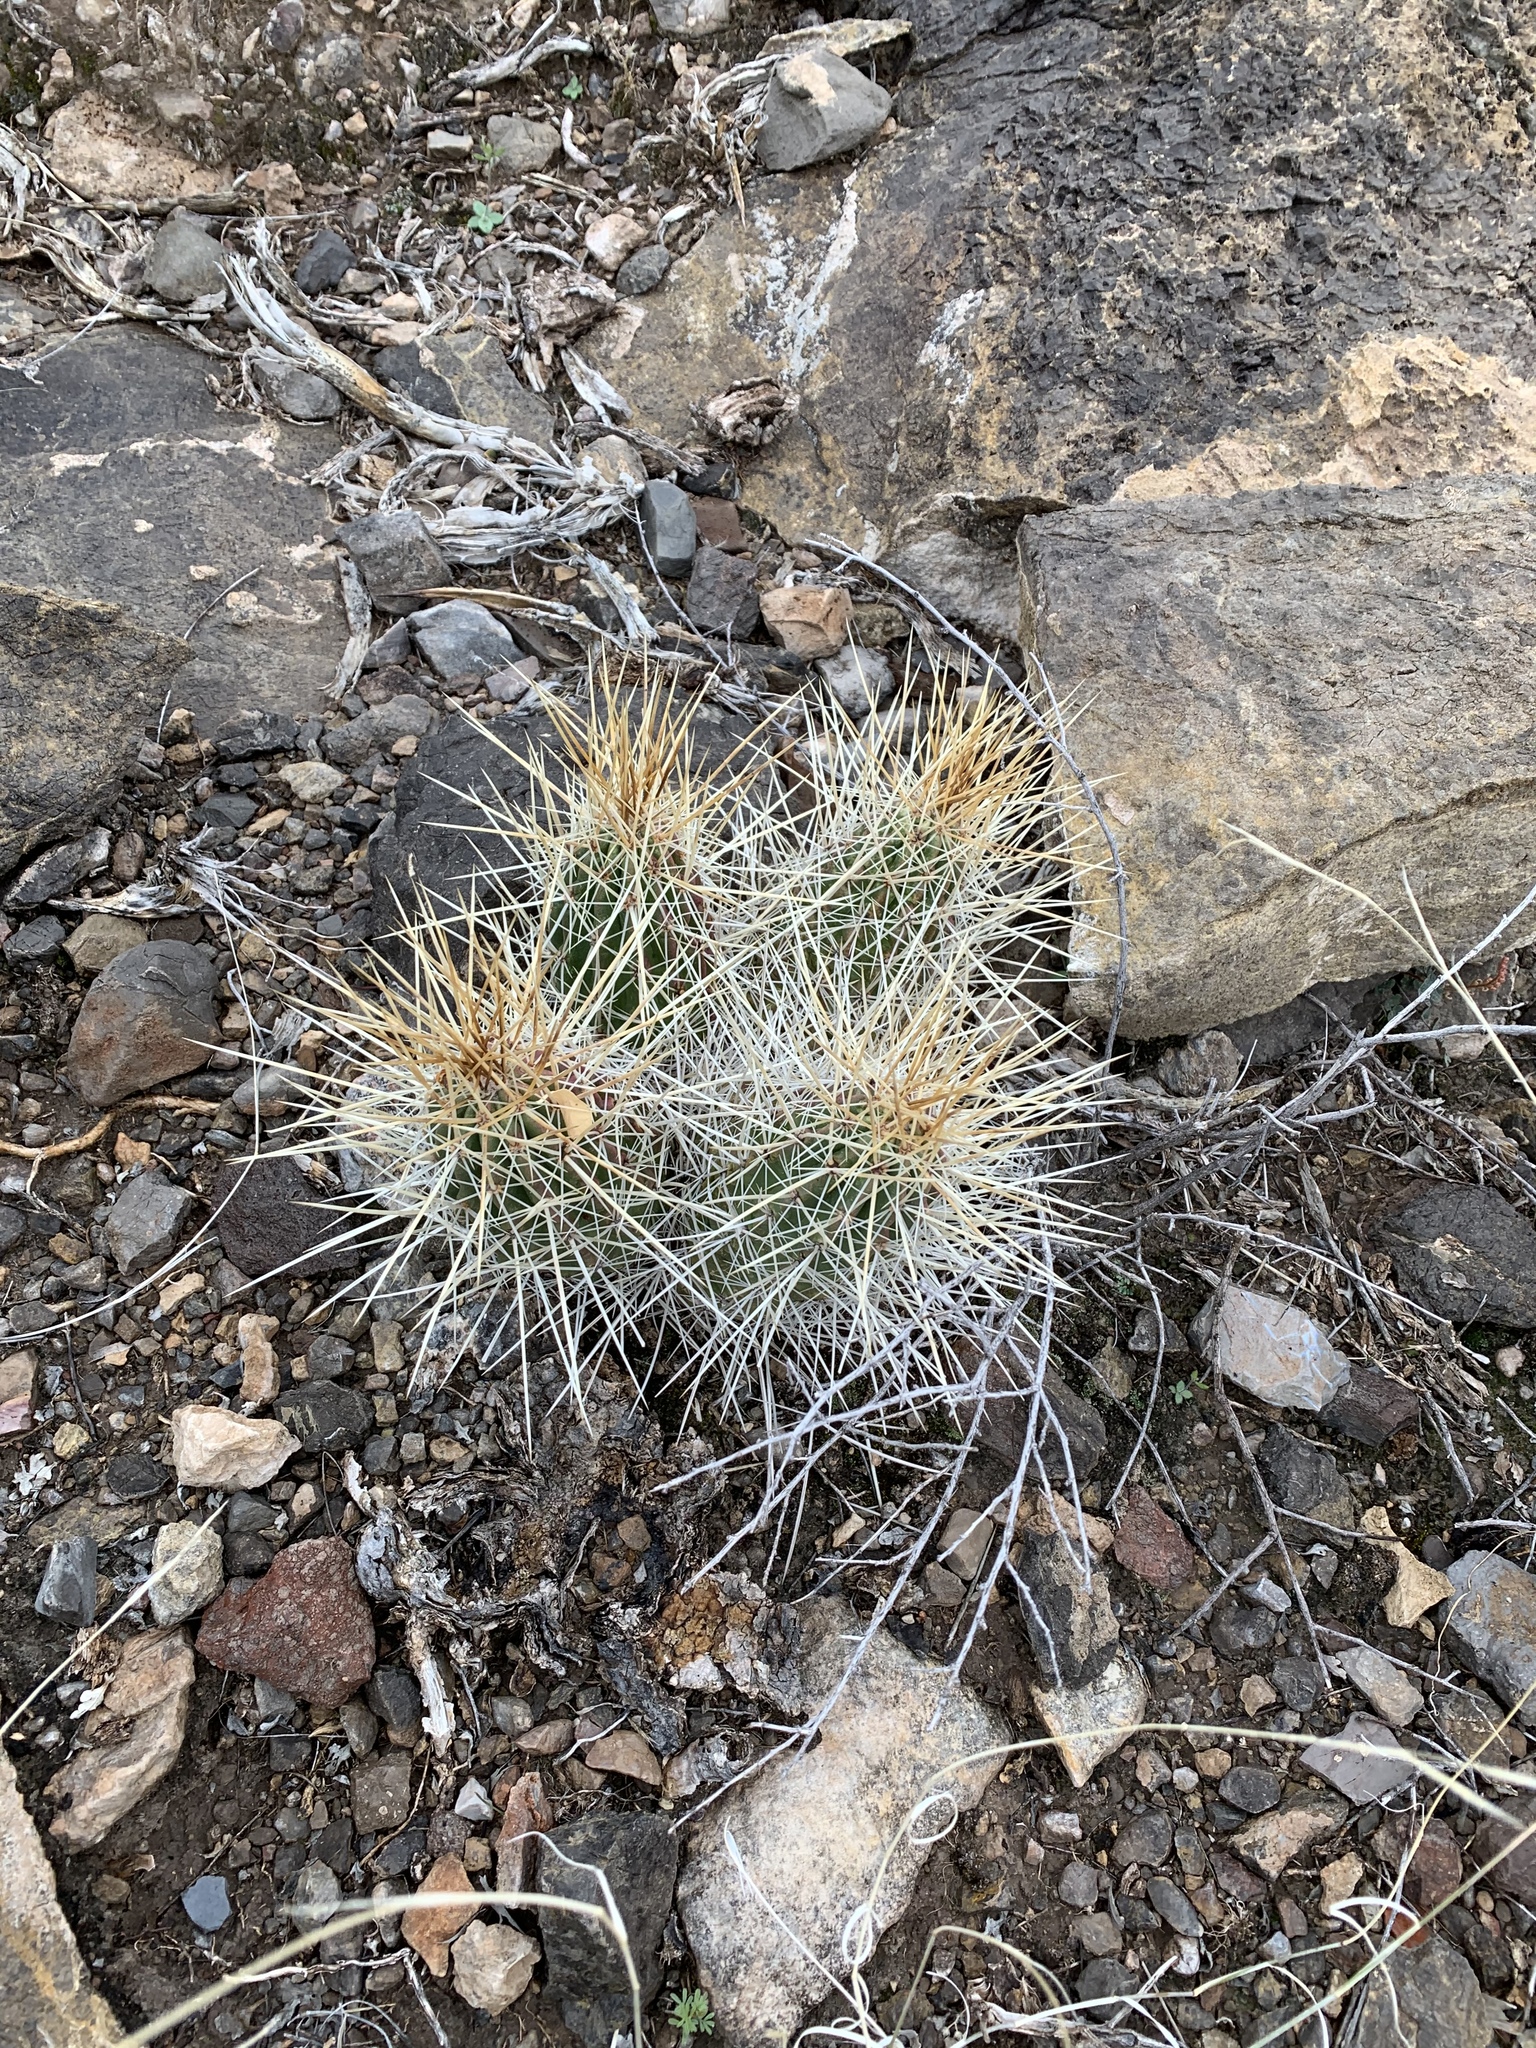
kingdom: Plantae
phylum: Tracheophyta
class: Magnoliopsida
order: Caryophyllales
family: Cactaceae
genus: Echinocereus
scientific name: Echinocereus stramineus
